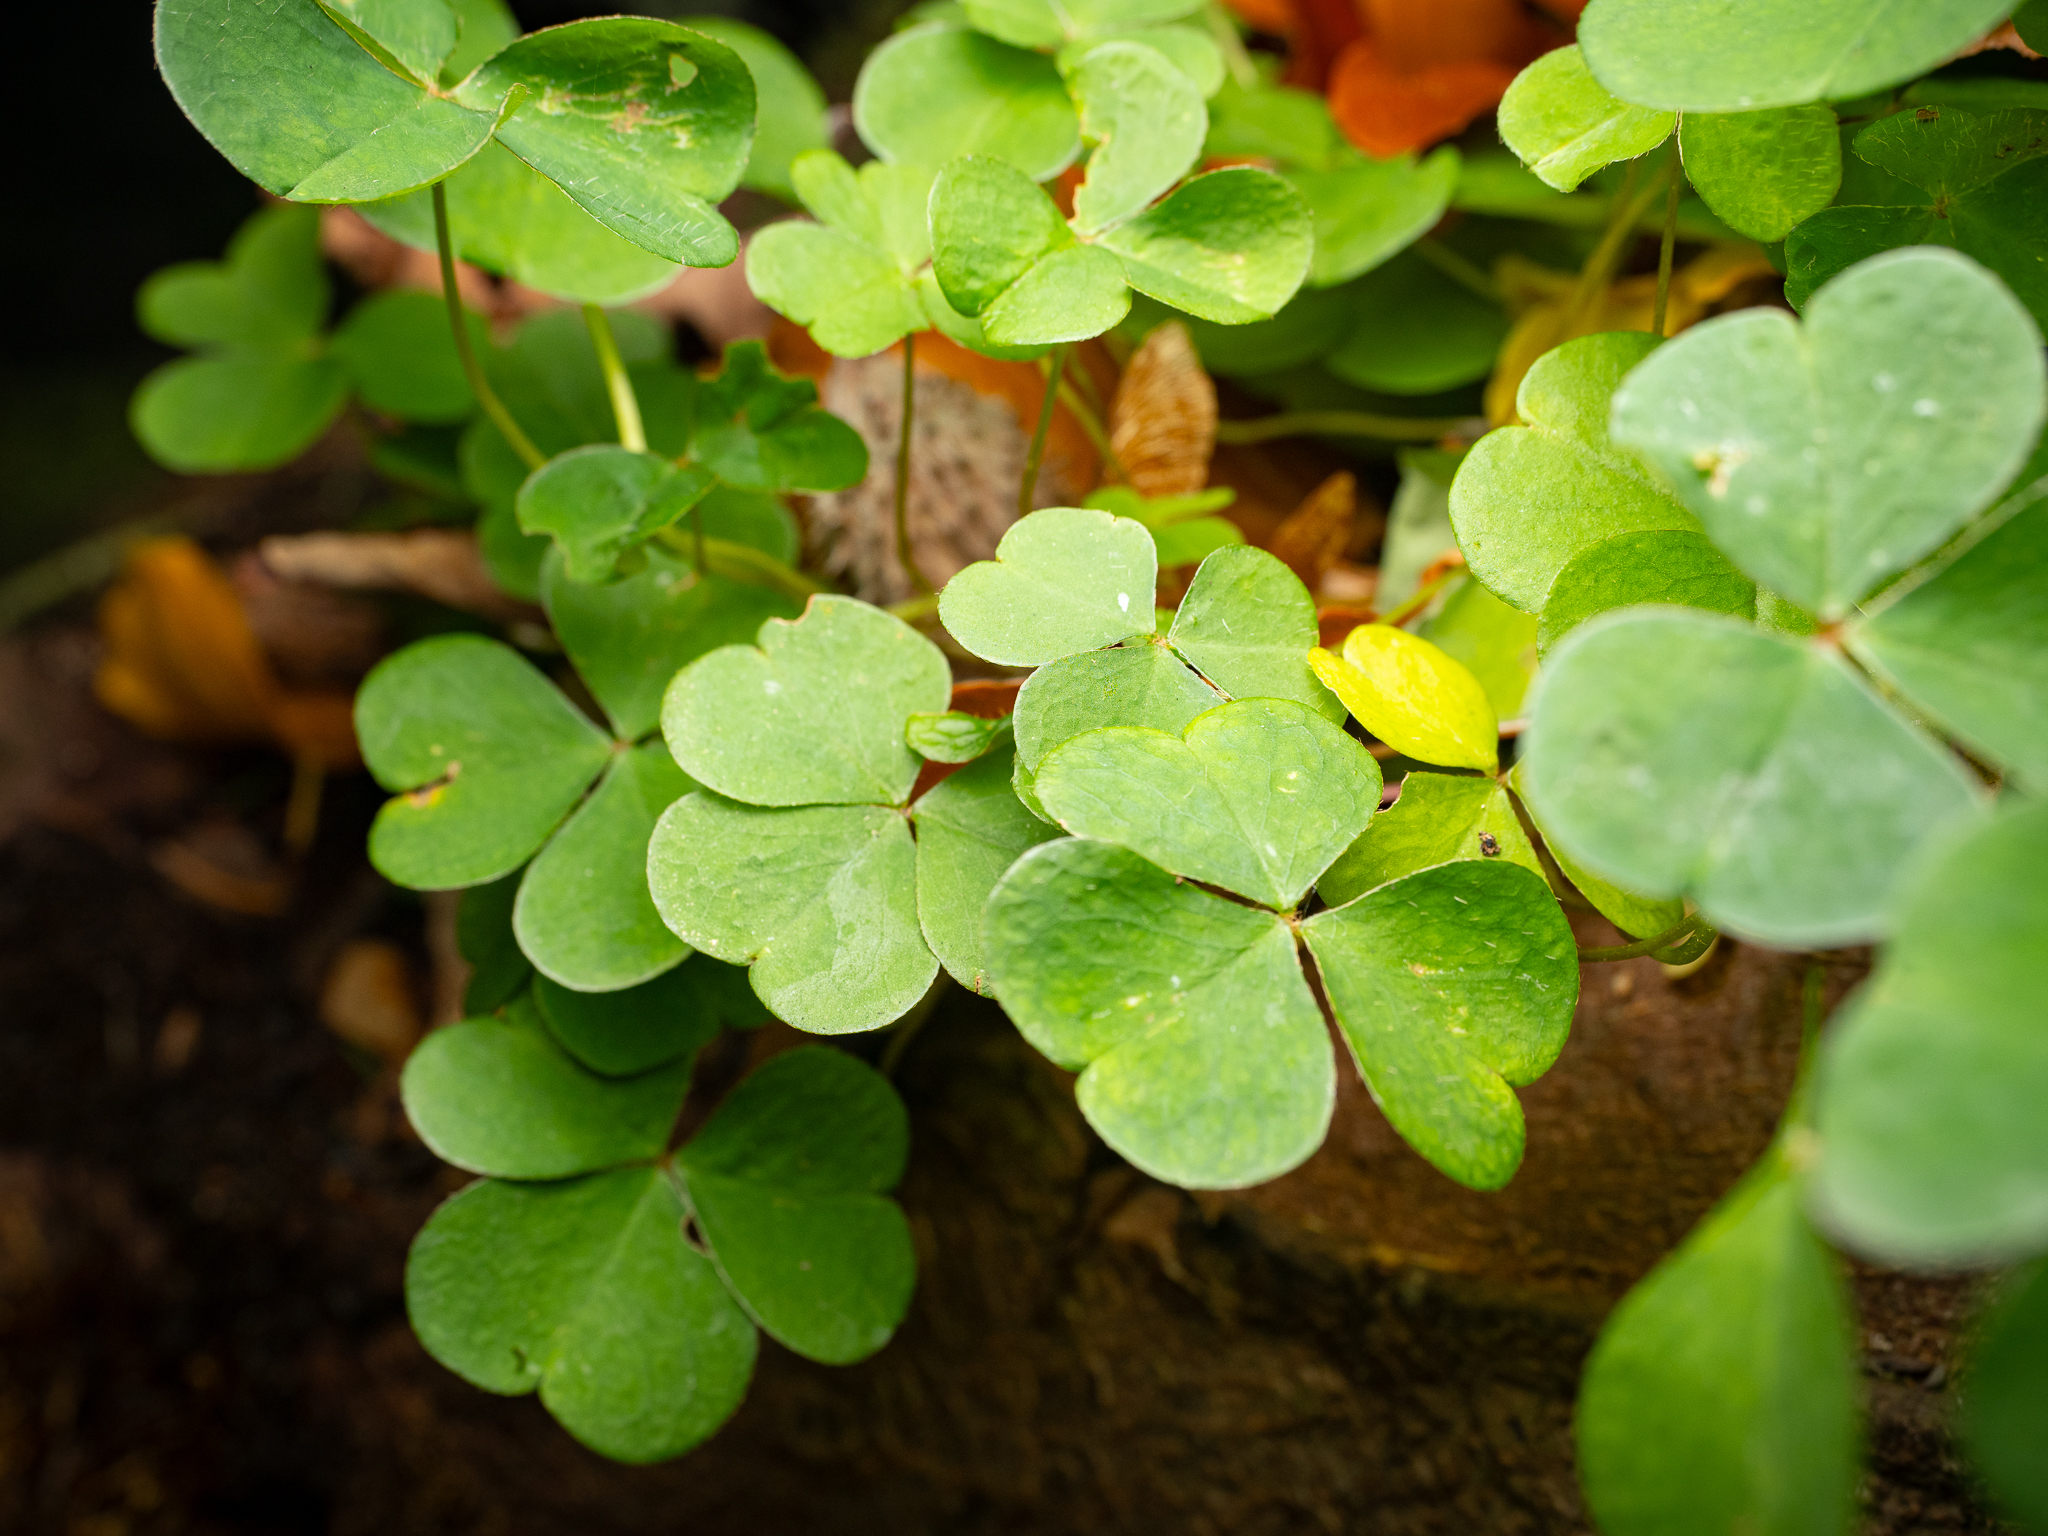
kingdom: Plantae
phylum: Tracheophyta
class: Magnoliopsida
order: Oxalidales
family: Oxalidaceae
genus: Oxalis
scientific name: Oxalis acetosella
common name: Wood-sorrel
